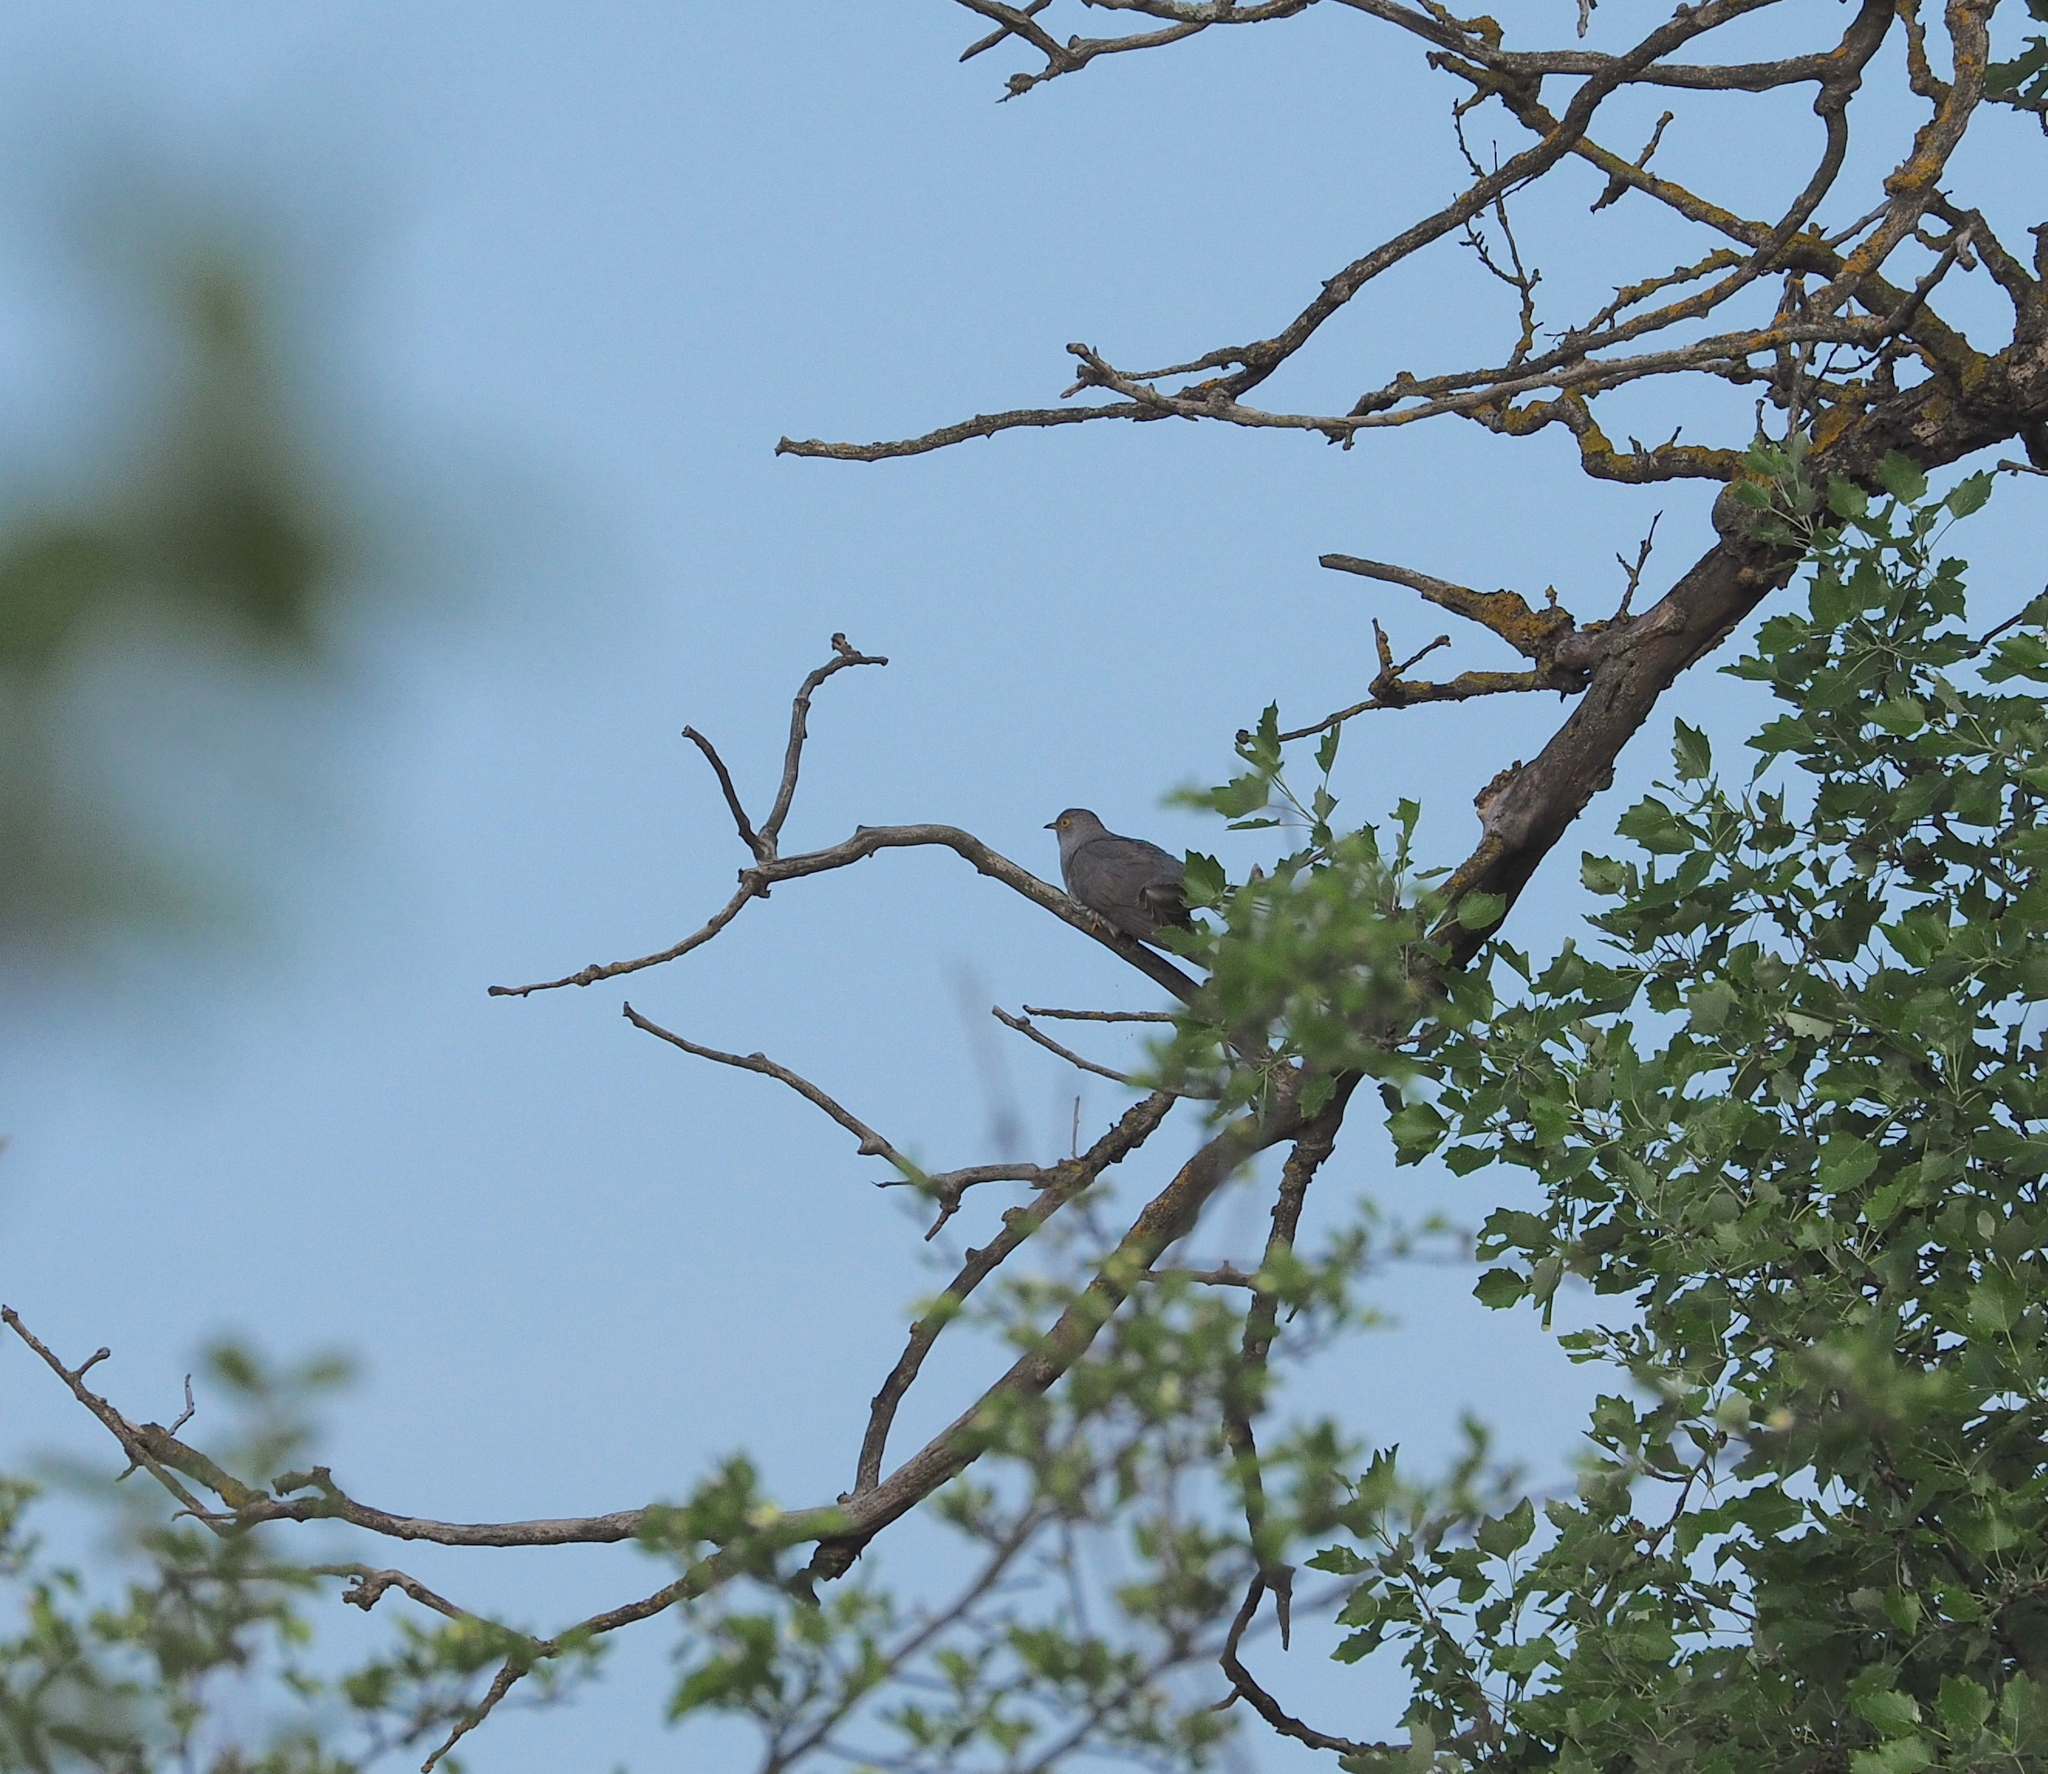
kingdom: Animalia
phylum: Chordata
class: Aves
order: Cuculiformes
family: Cuculidae
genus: Cuculus
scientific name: Cuculus canorus
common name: Common cuckoo
